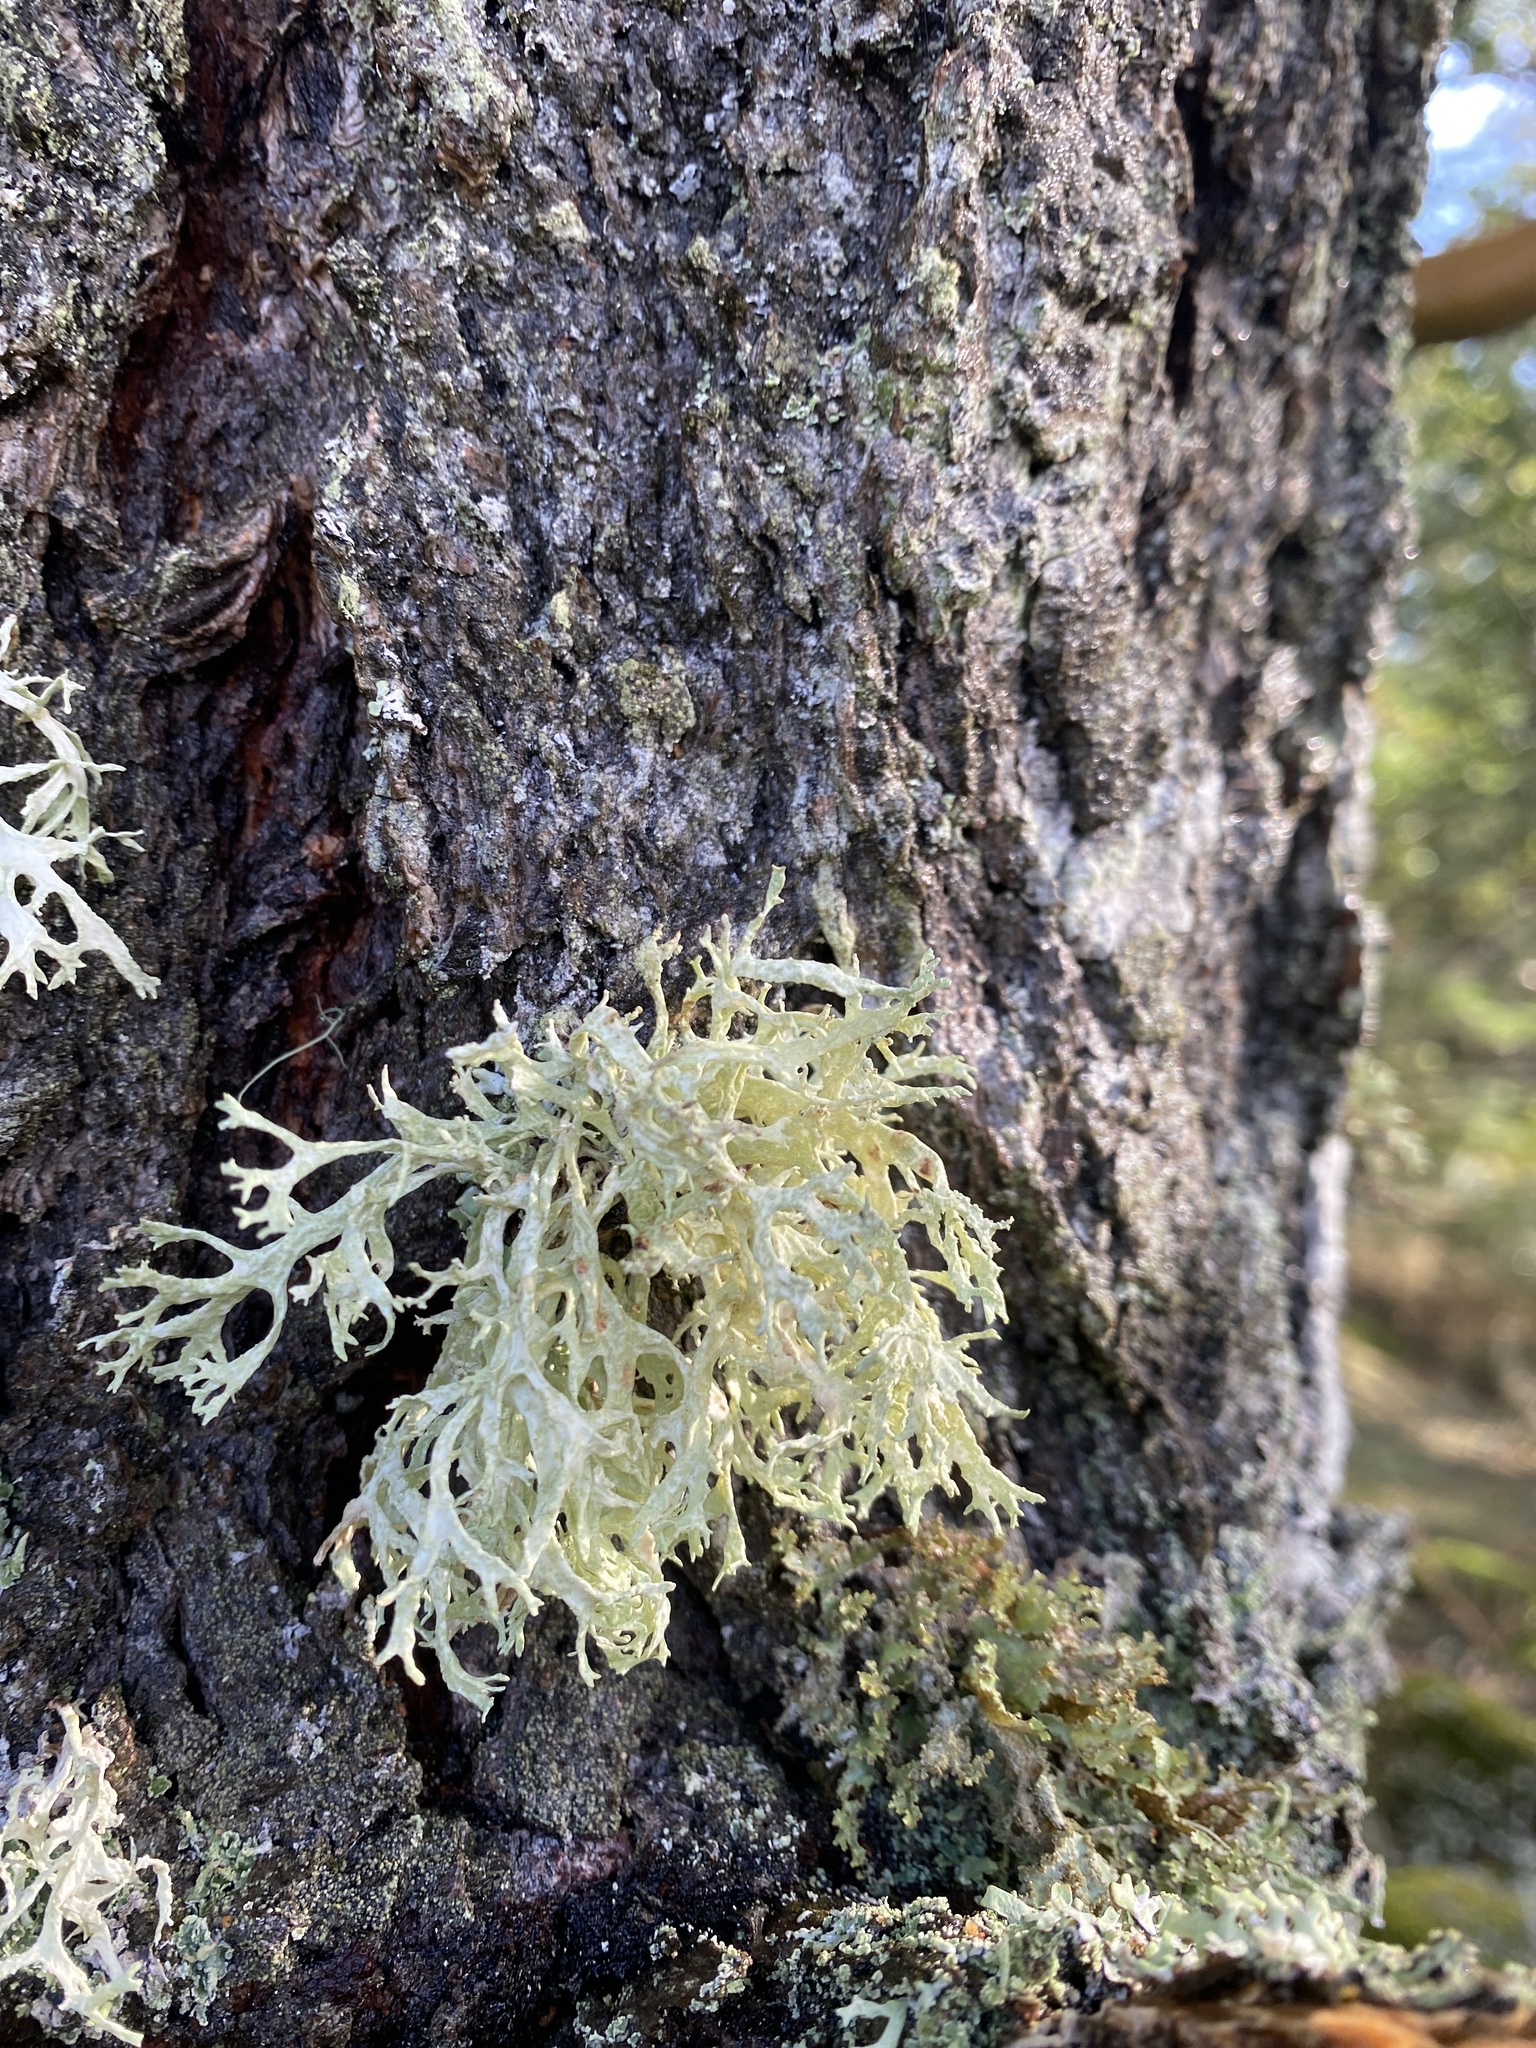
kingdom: Fungi
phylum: Ascomycota
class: Lecanoromycetes
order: Lecanorales
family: Parmeliaceae
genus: Evernia
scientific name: Evernia prunastri
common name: Oak moss
